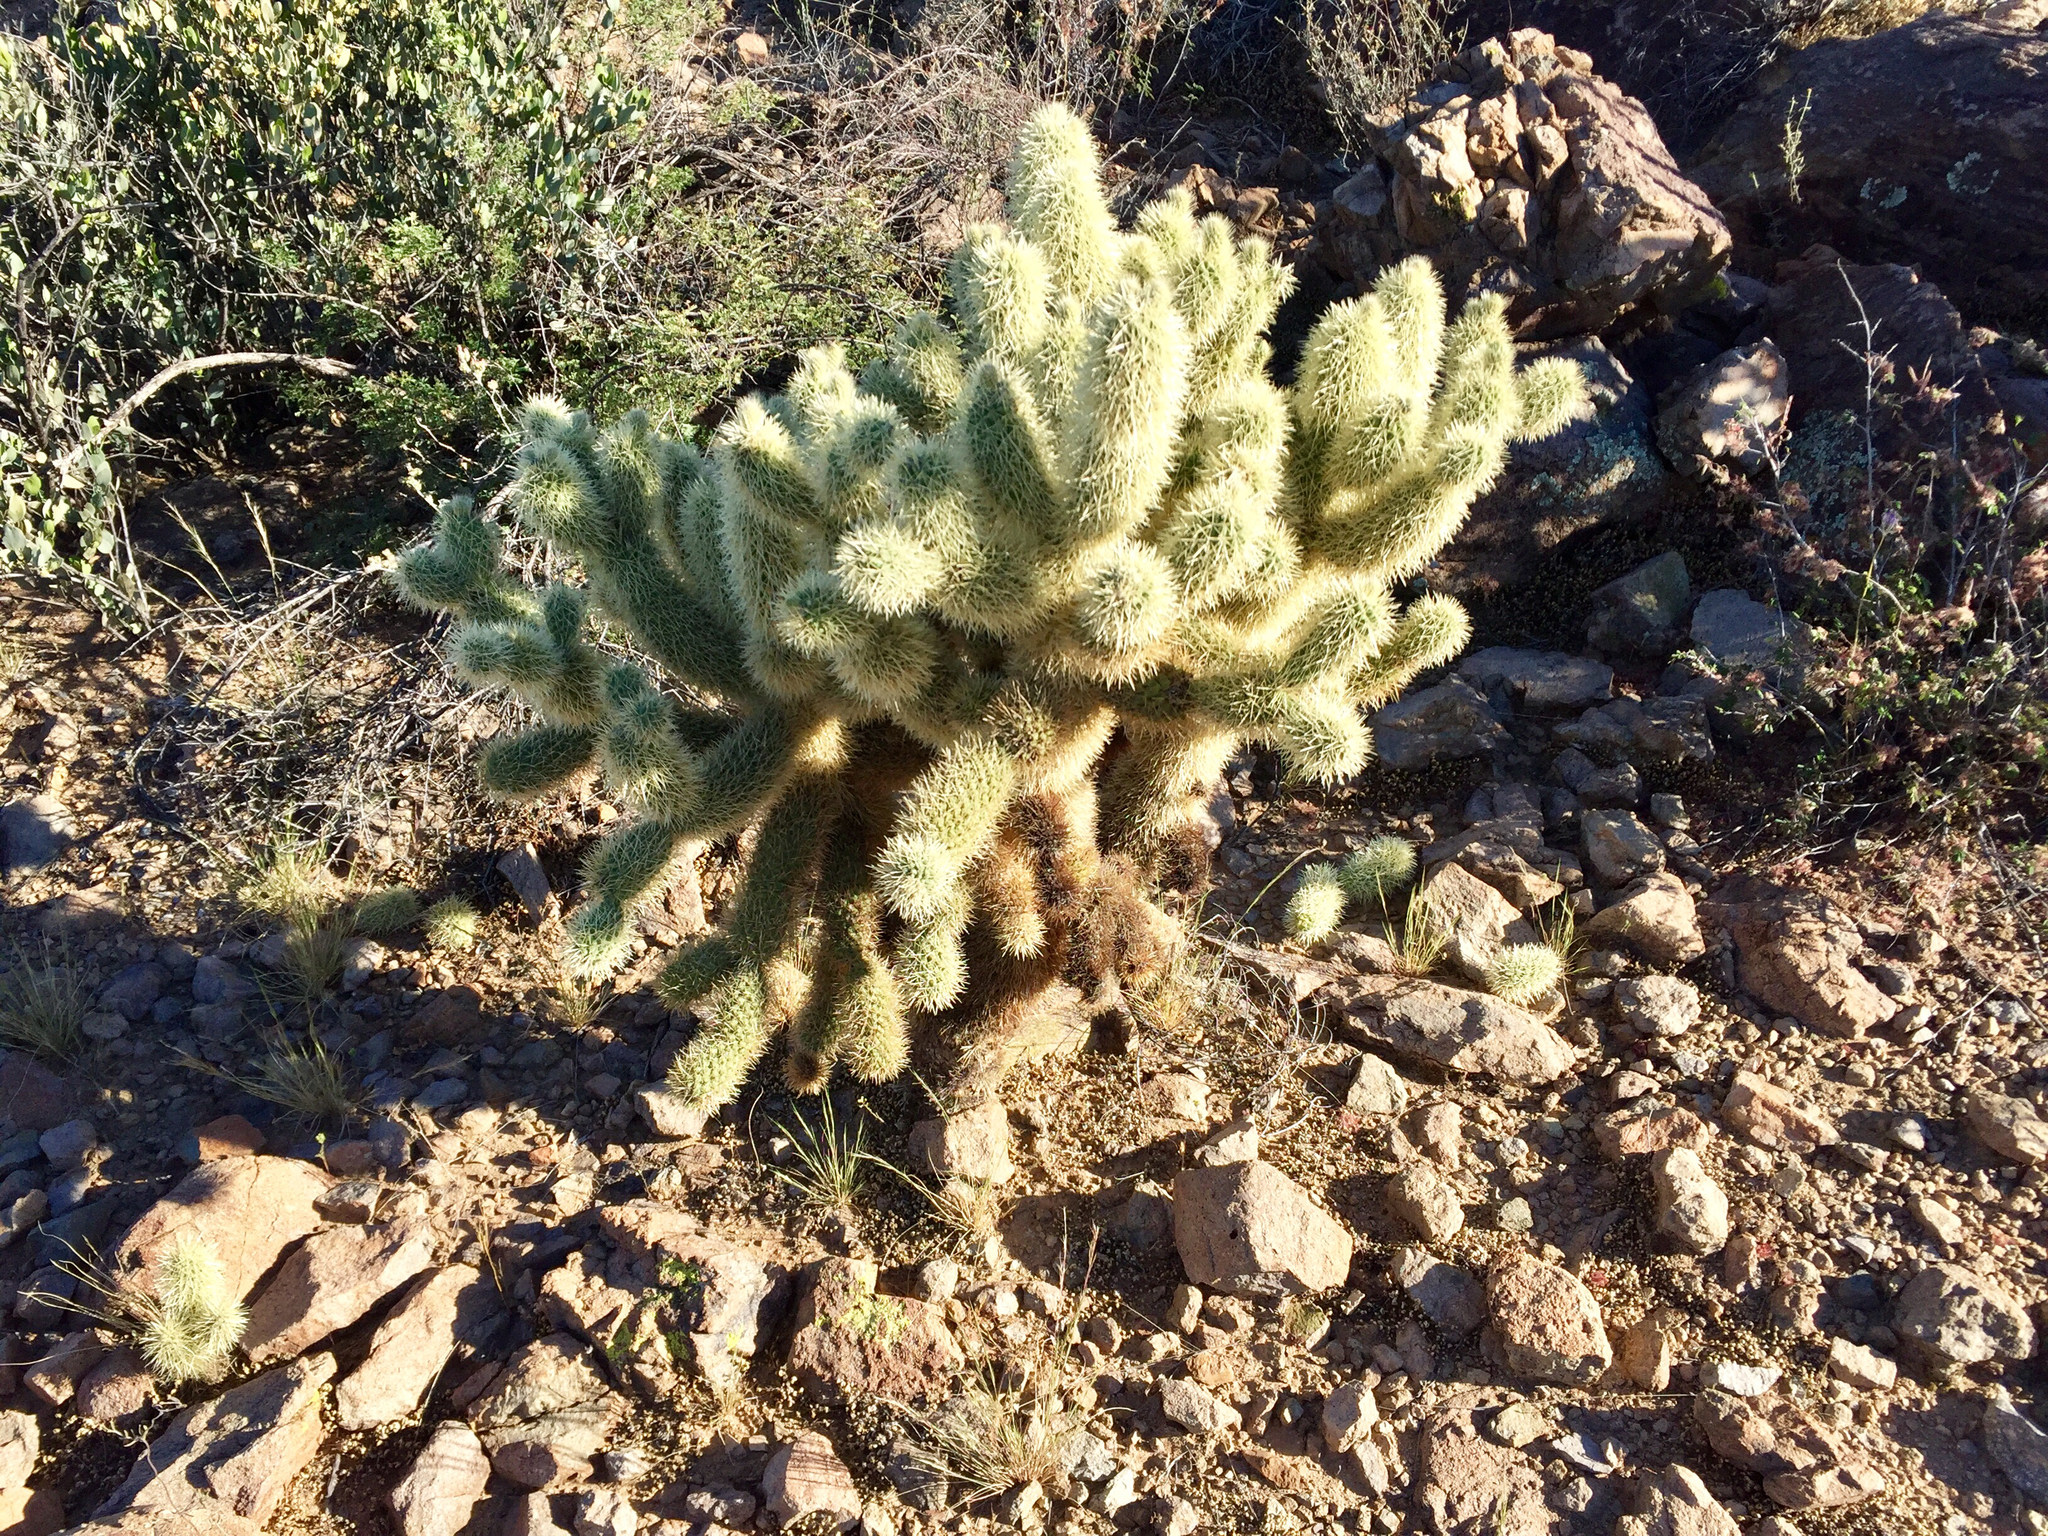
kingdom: Plantae
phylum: Tracheophyta
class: Magnoliopsida
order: Caryophyllales
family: Cactaceae
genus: Cylindropuntia
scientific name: Cylindropuntia fosbergii
